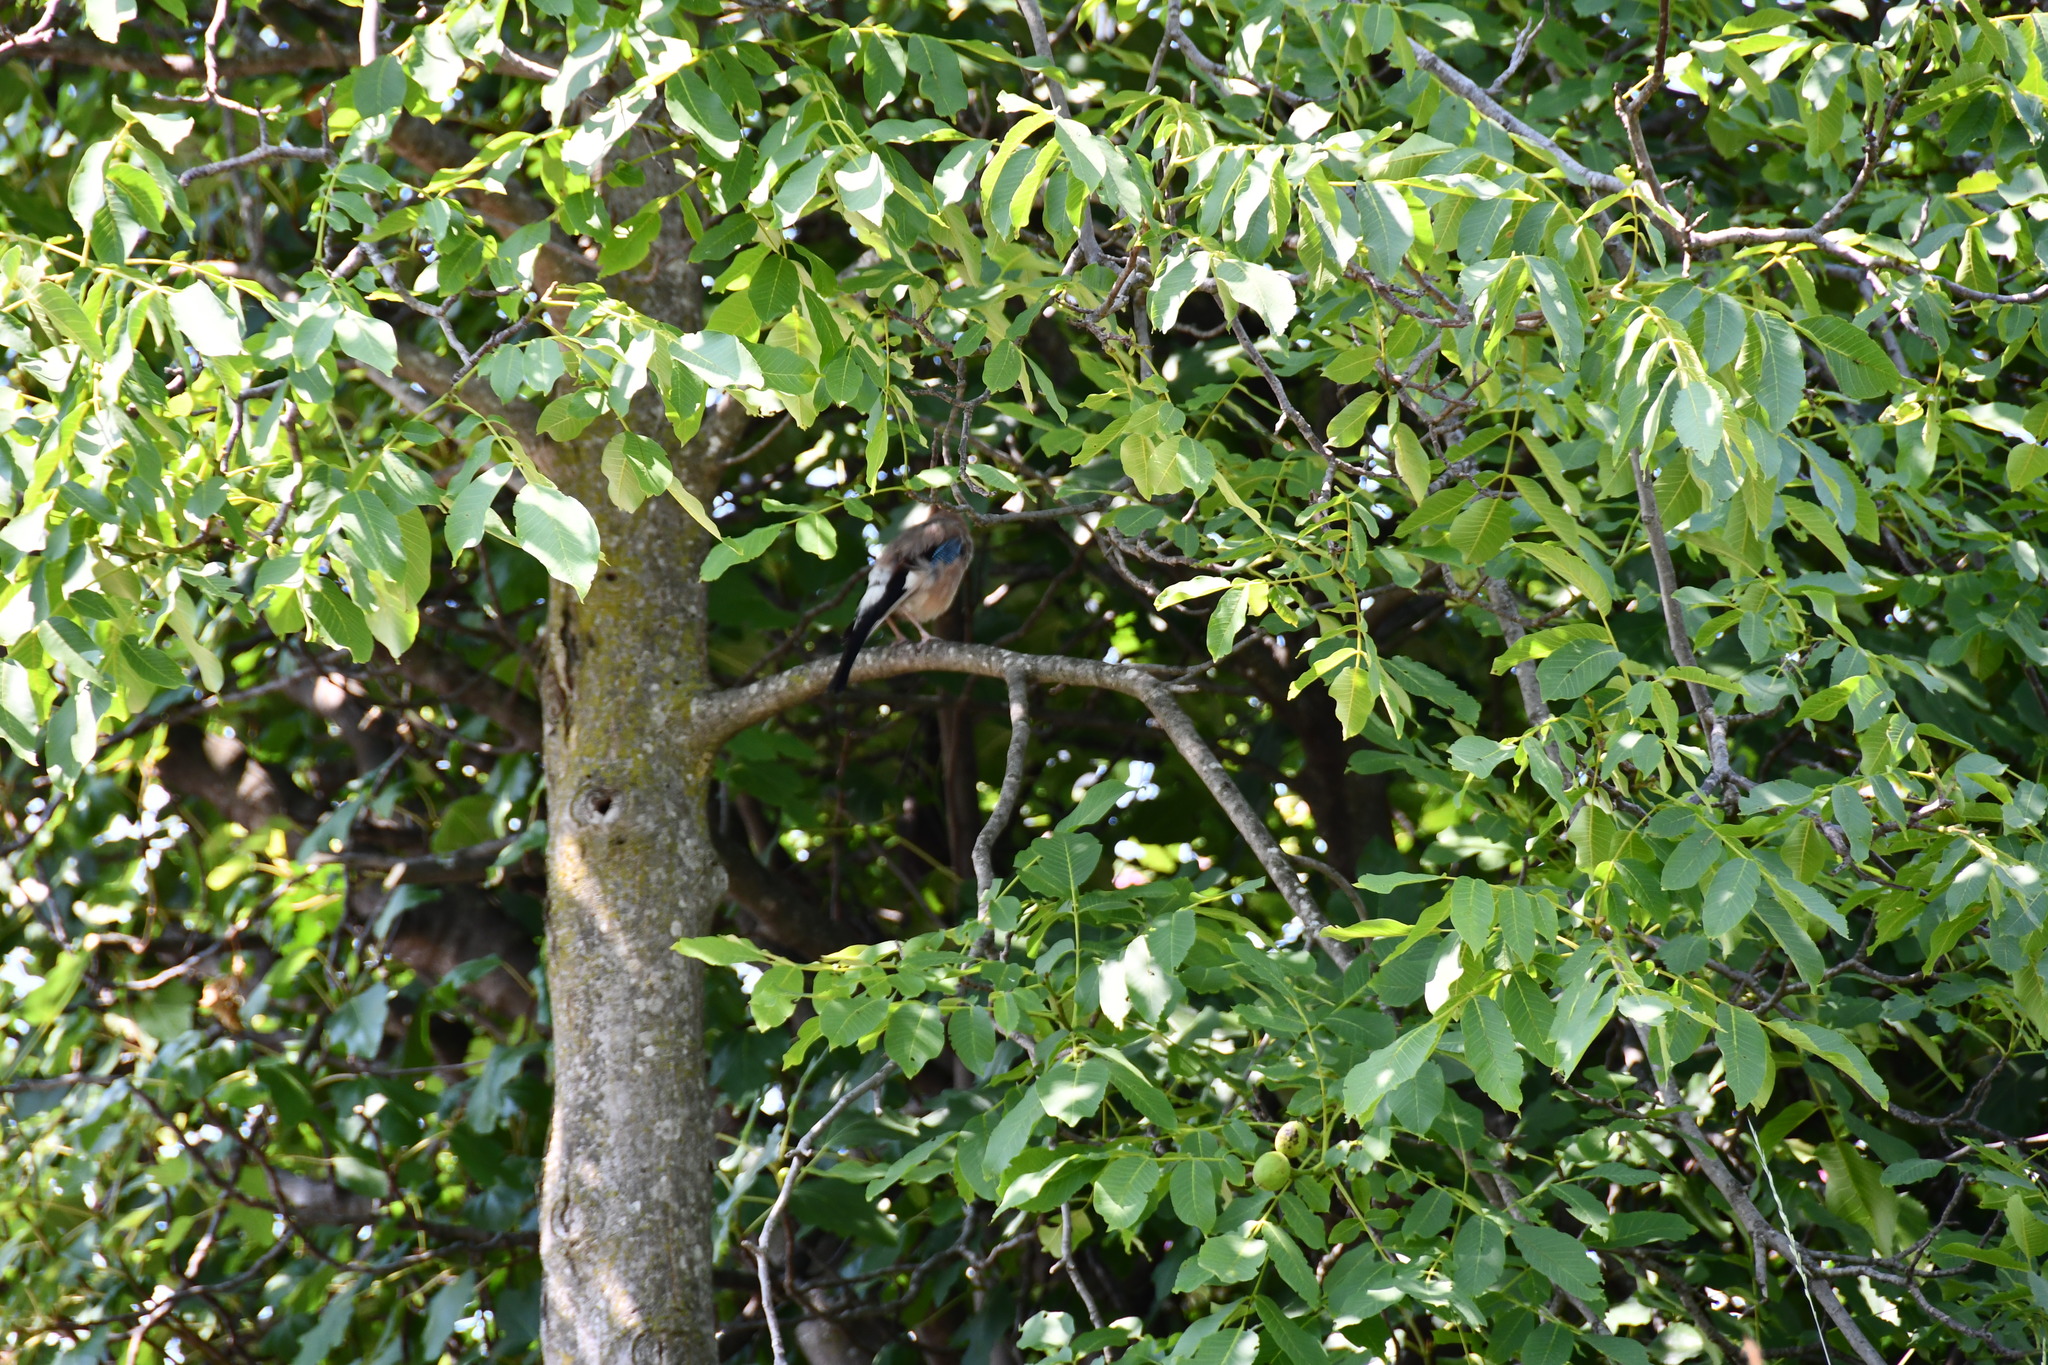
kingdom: Animalia
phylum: Chordata
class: Aves
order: Passeriformes
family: Corvidae
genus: Garrulus
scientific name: Garrulus glandarius
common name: Eurasian jay
